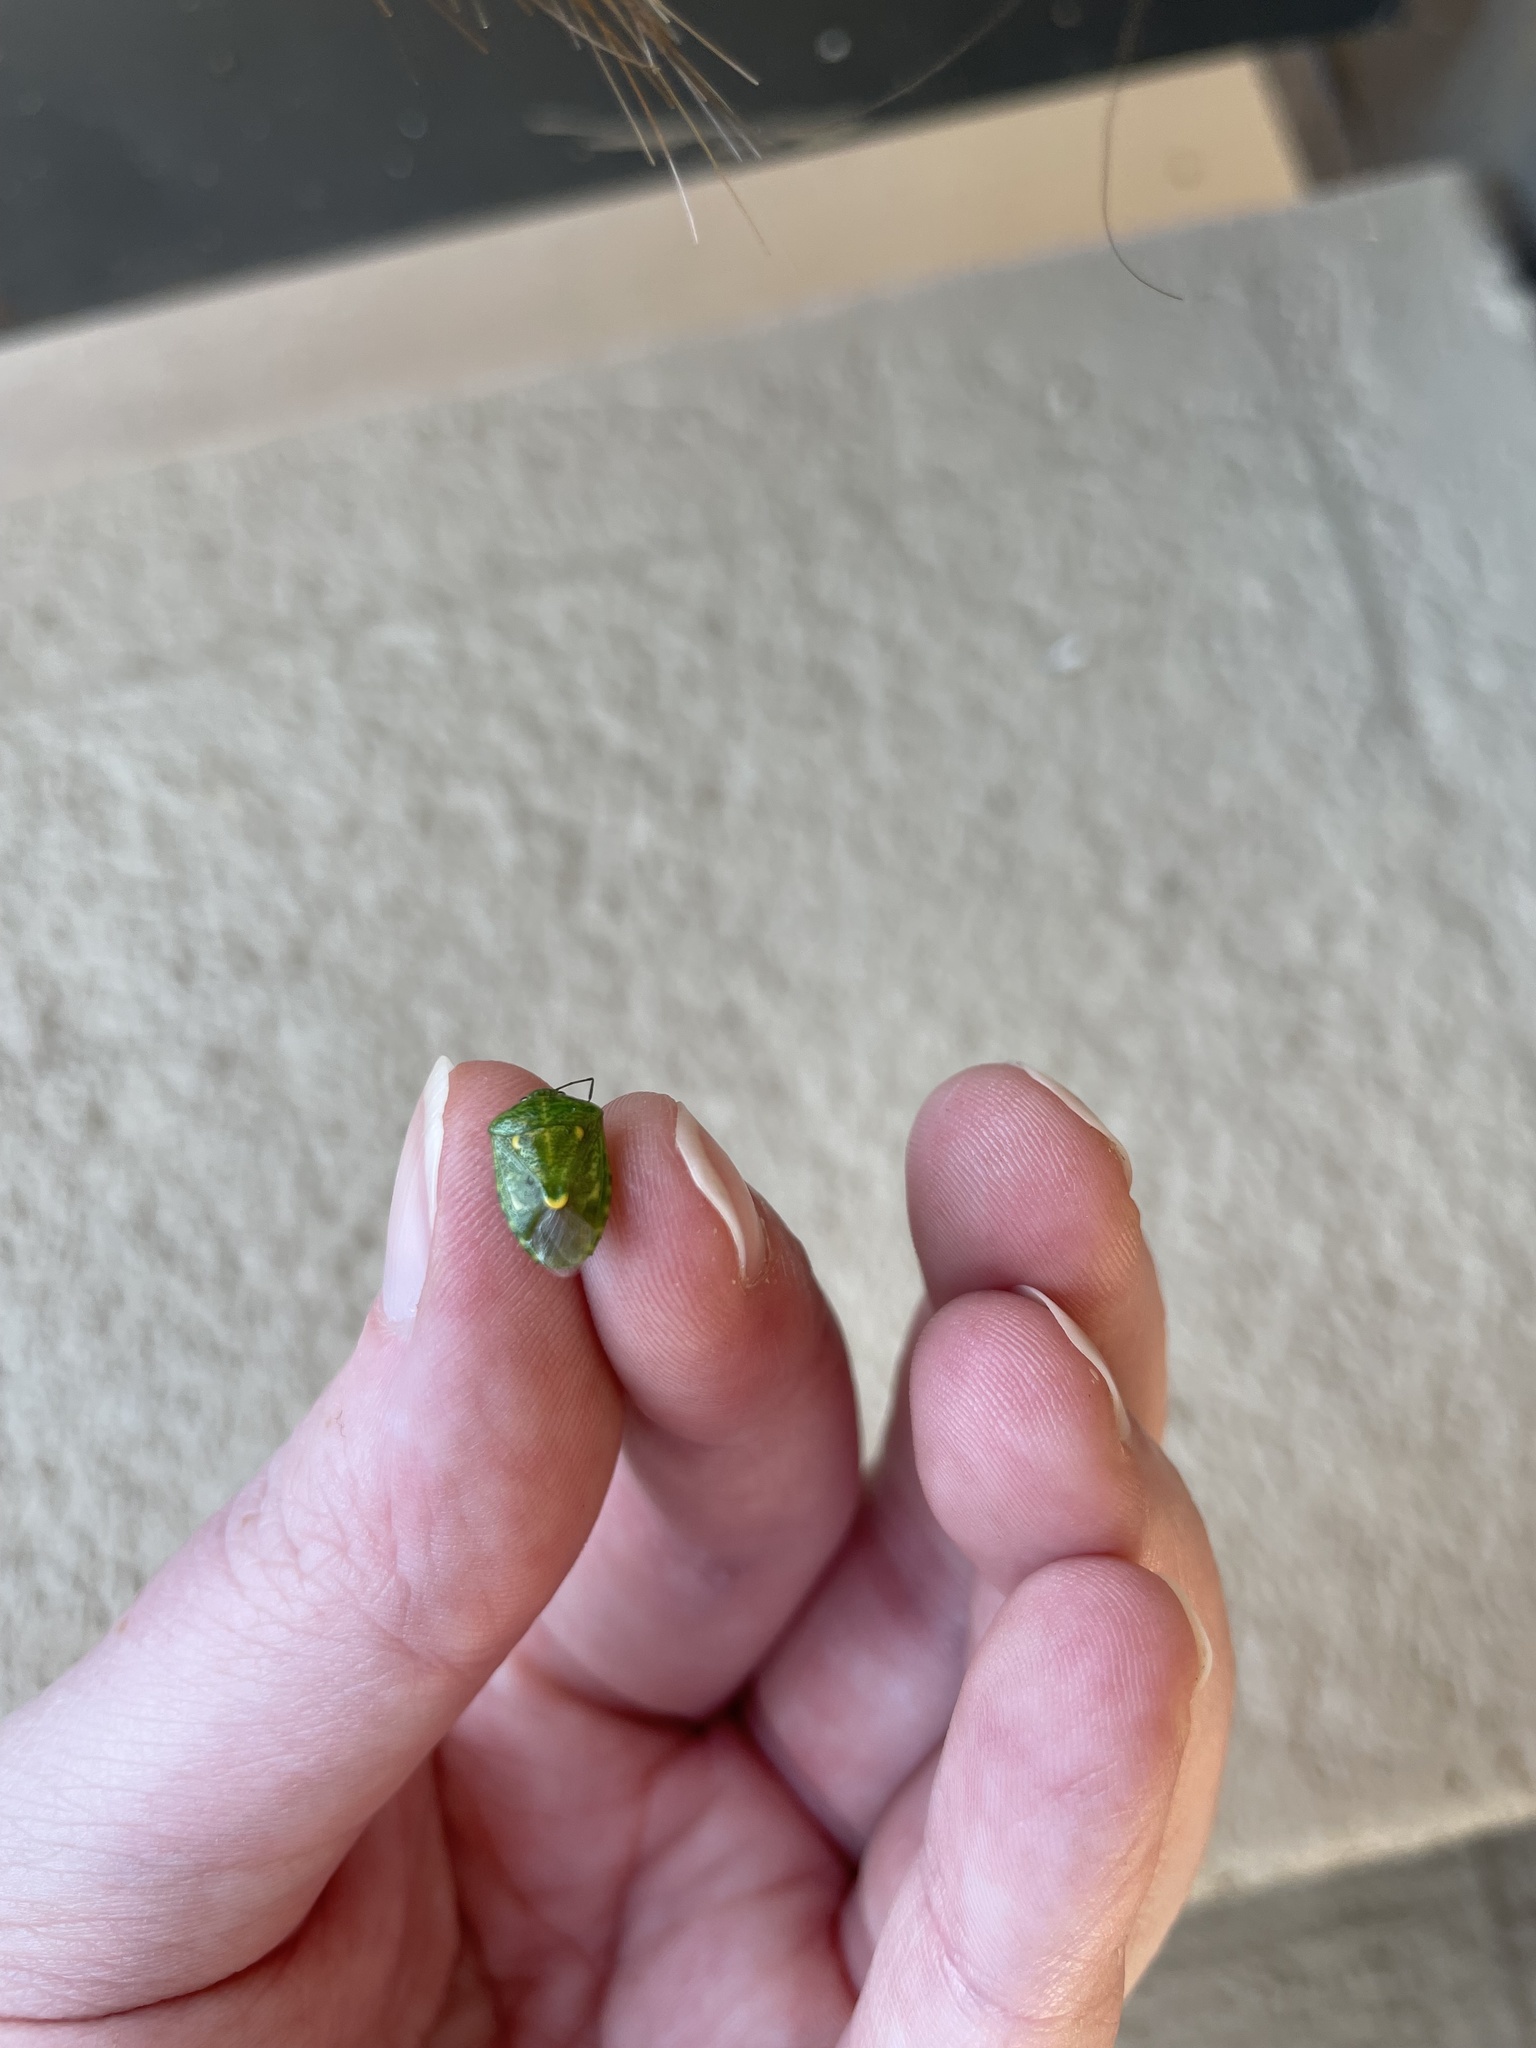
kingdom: Animalia
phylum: Arthropoda
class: Insecta
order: Hemiptera
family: Pentatomidae
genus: Banasa
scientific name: Banasa euchlora
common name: Cedar berry bug
